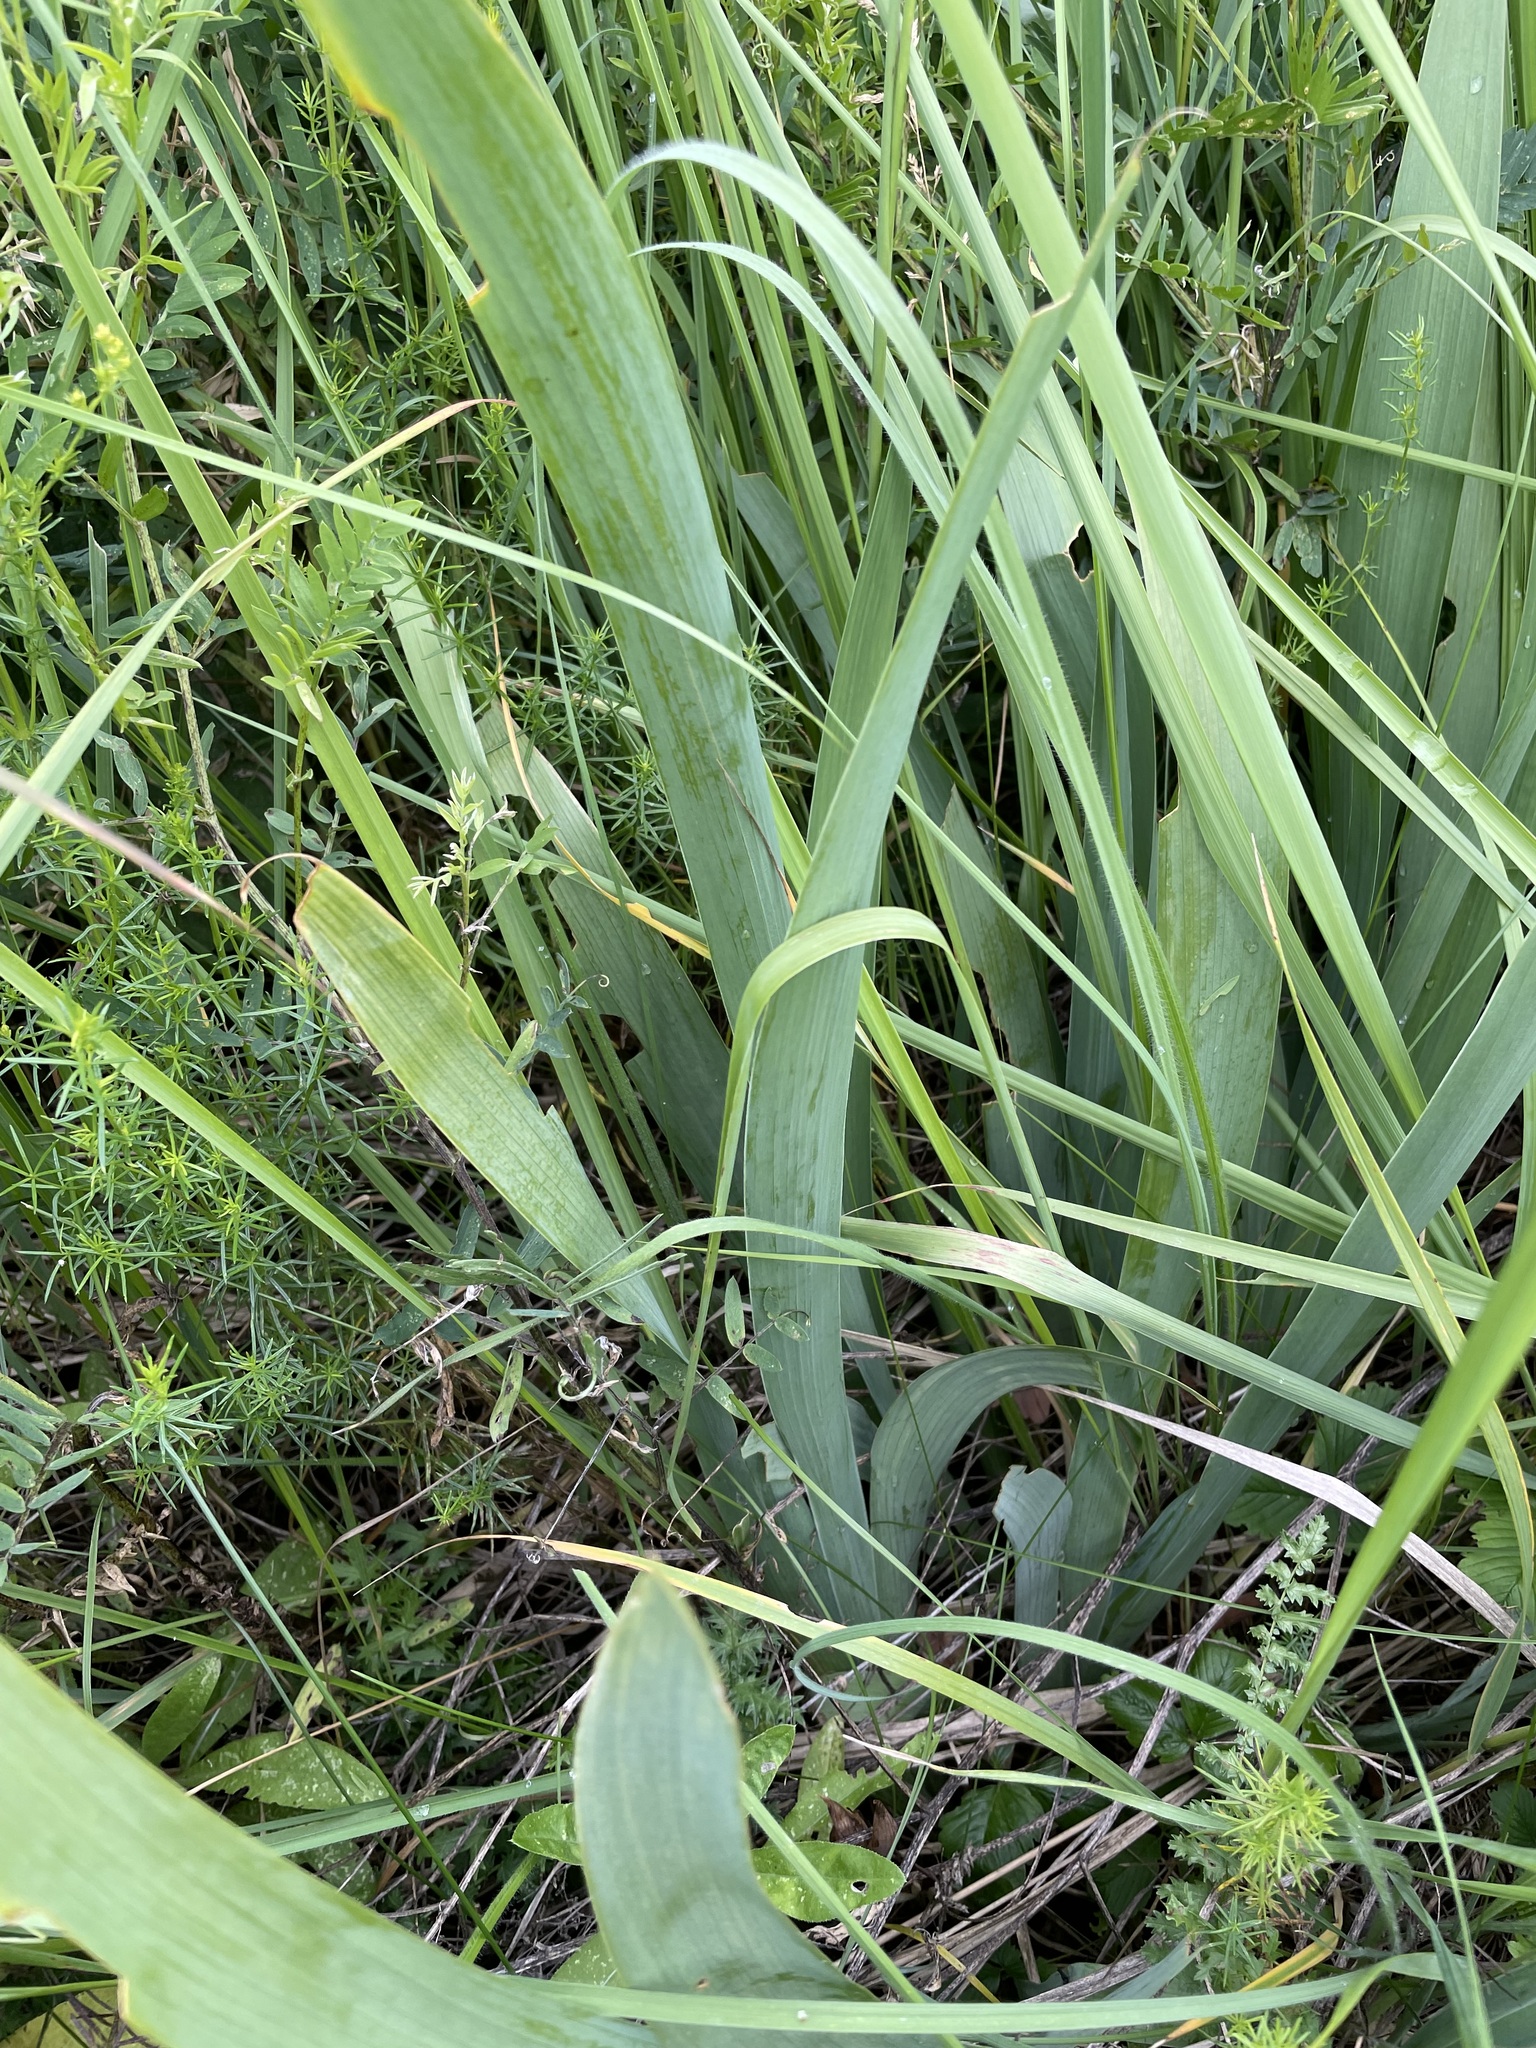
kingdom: Plantae
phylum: Tracheophyta
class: Liliopsida
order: Asparagales
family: Iridaceae
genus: Iris
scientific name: Iris aphylla
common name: Stool iris
